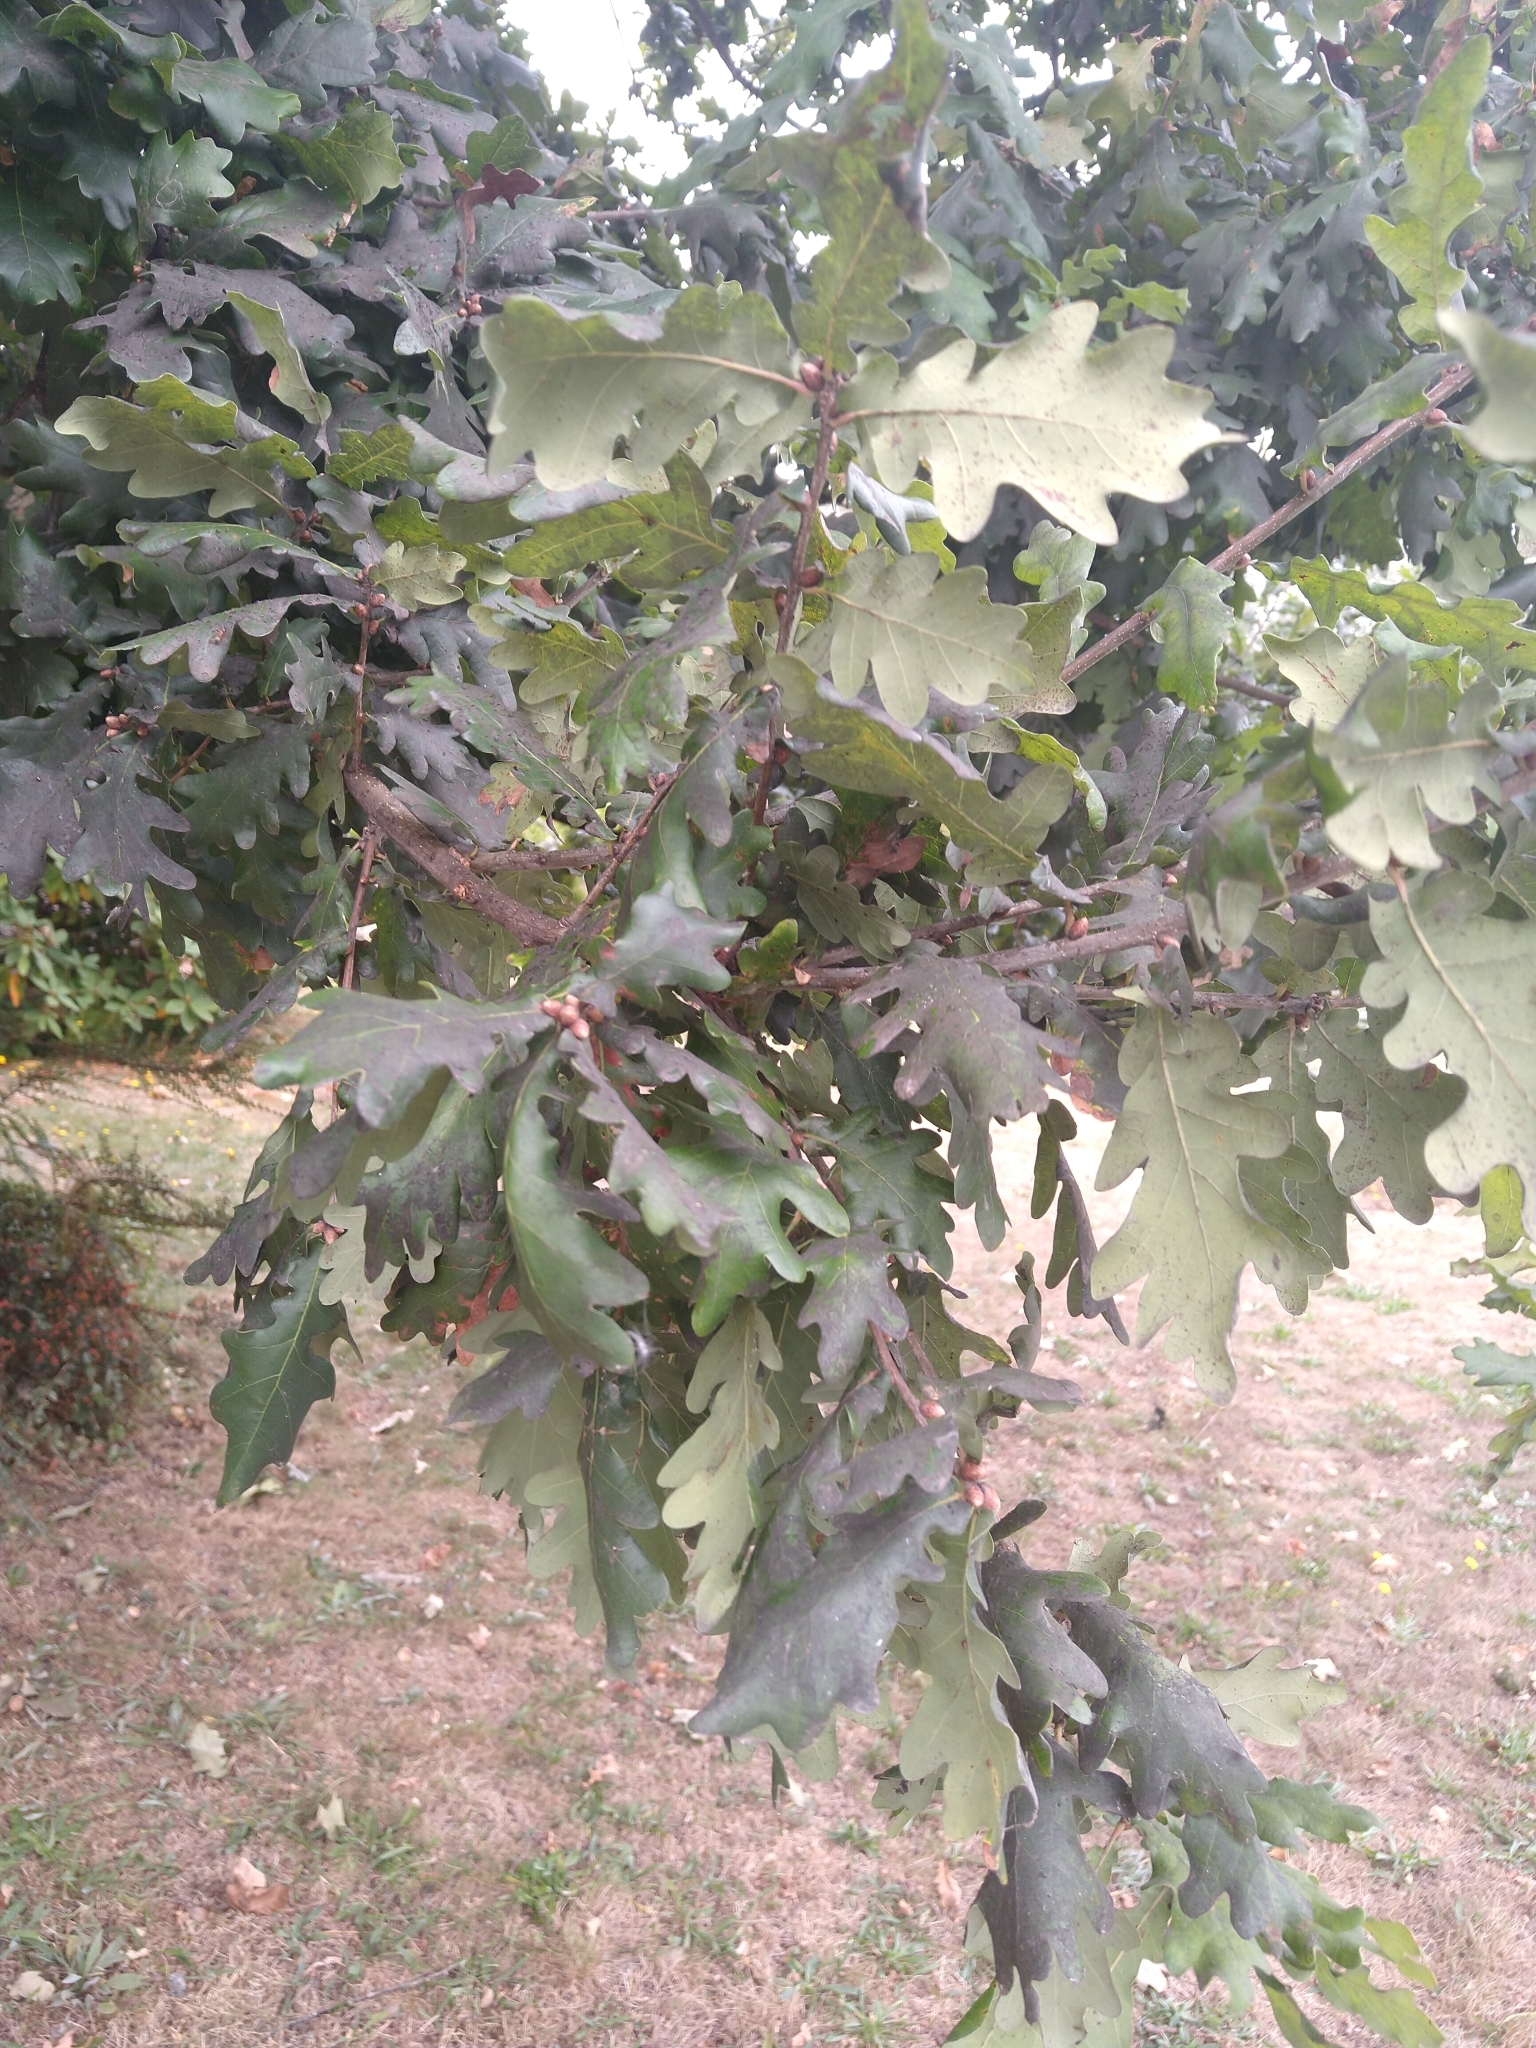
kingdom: Plantae
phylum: Tracheophyta
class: Magnoliopsida
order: Fagales
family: Fagaceae
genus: Quercus
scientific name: Quercus robur
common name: Pedunculate oak
